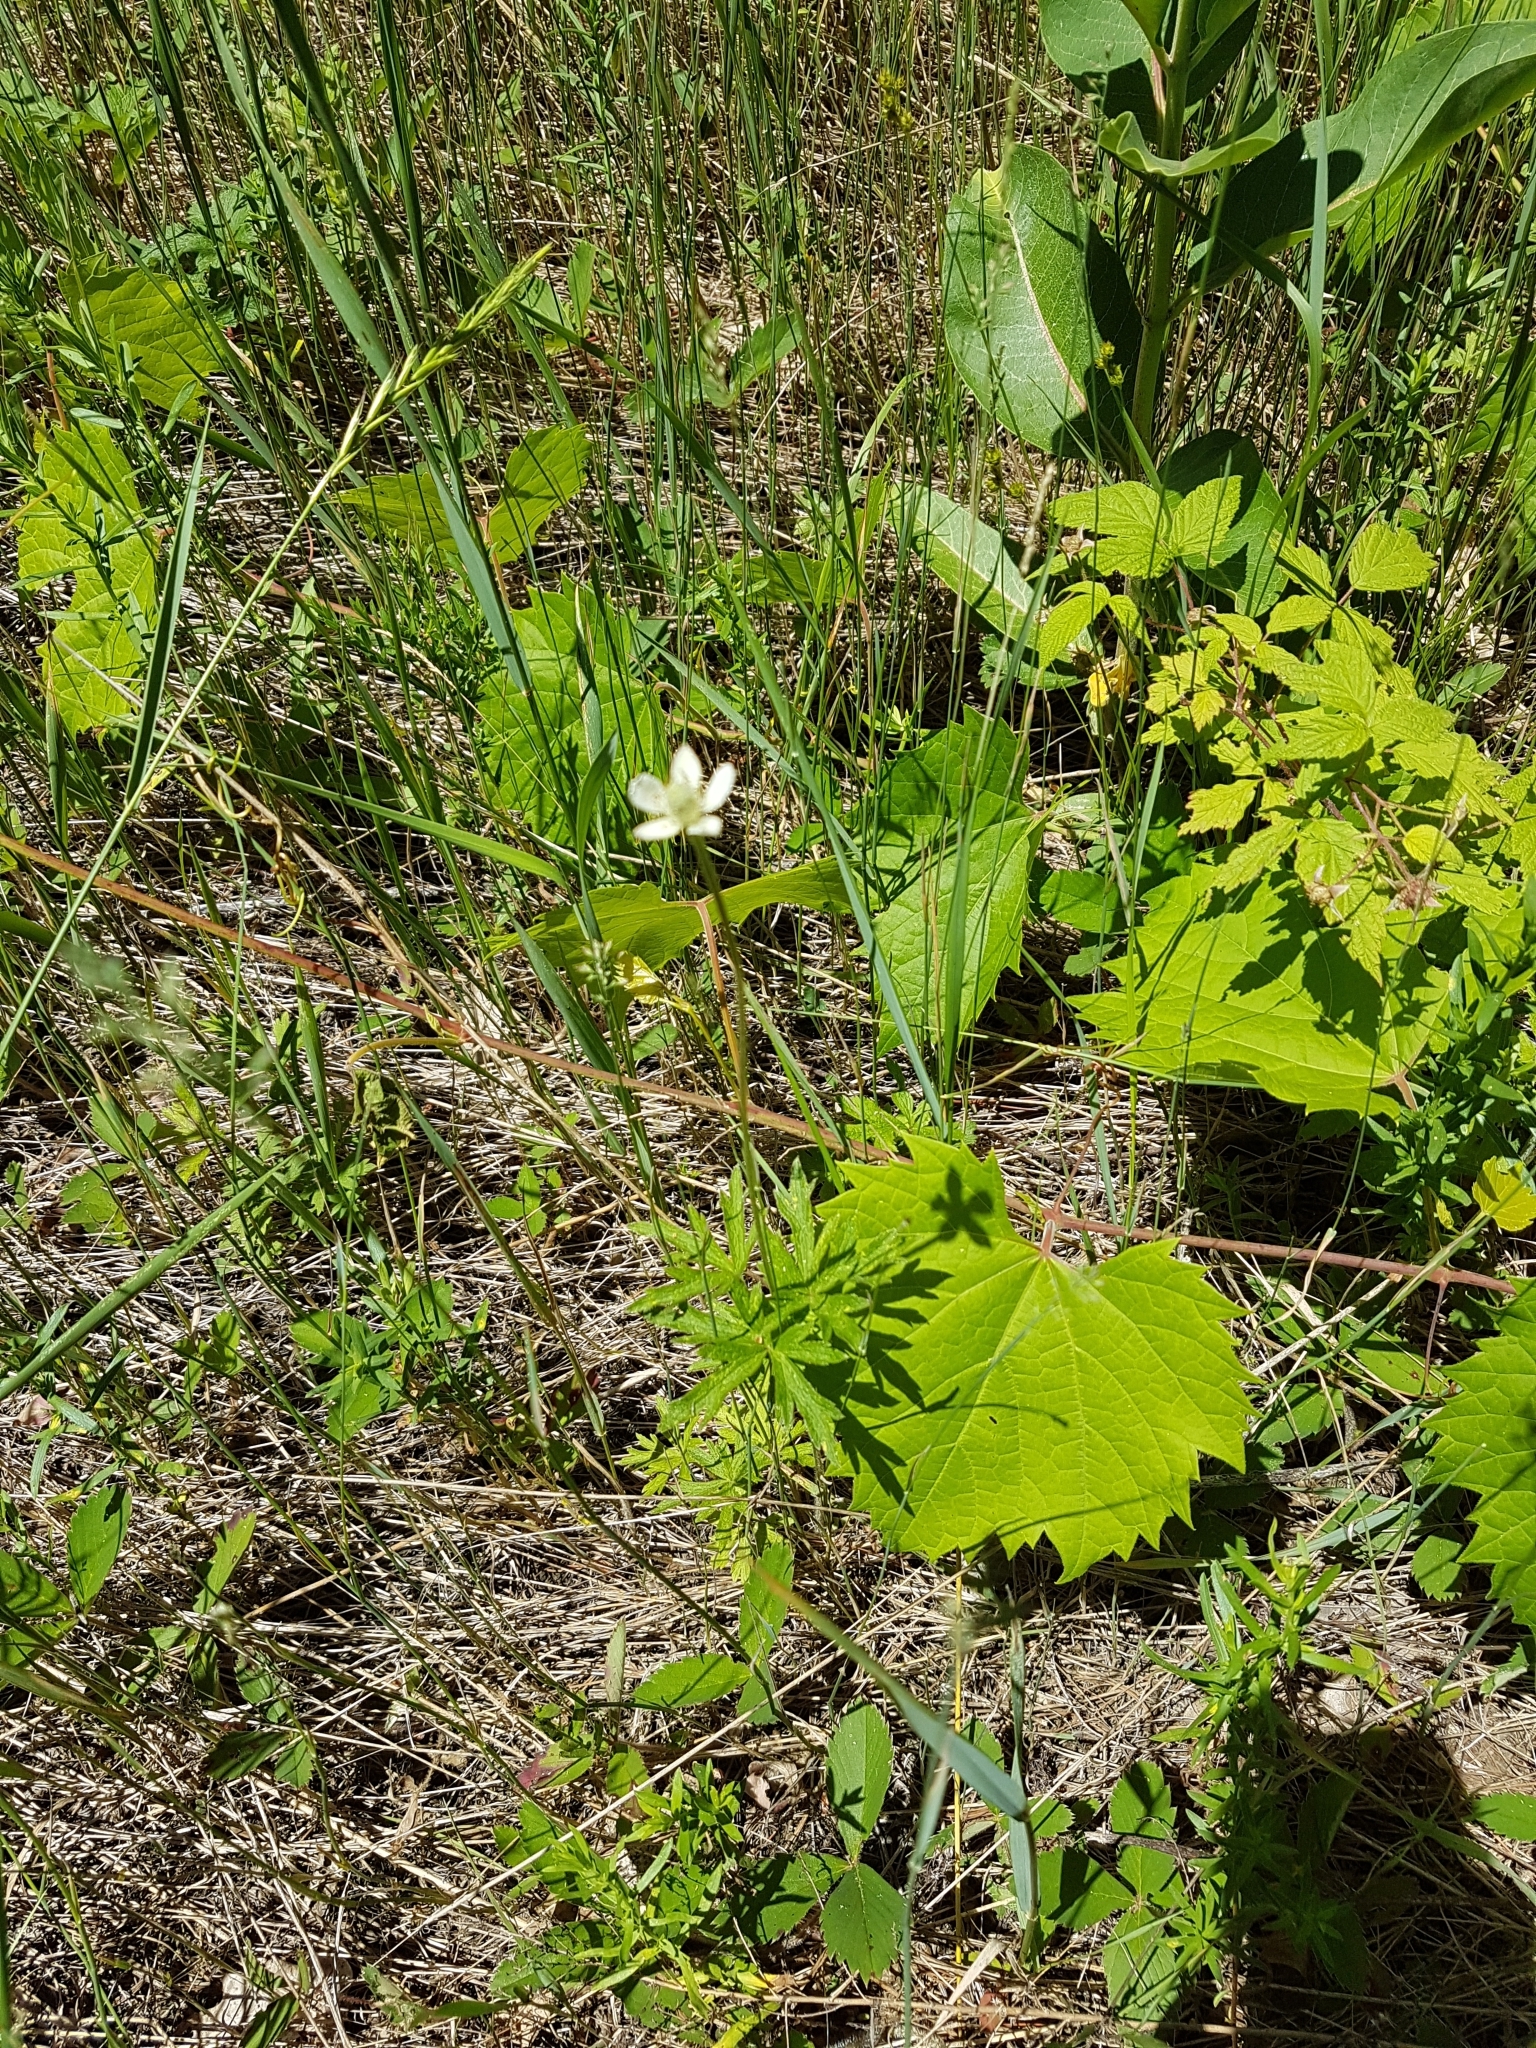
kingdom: Plantae
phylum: Tracheophyta
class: Magnoliopsida
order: Ranunculales
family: Ranunculaceae
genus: Anemone
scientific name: Anemone virginiana
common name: Tall anemone
